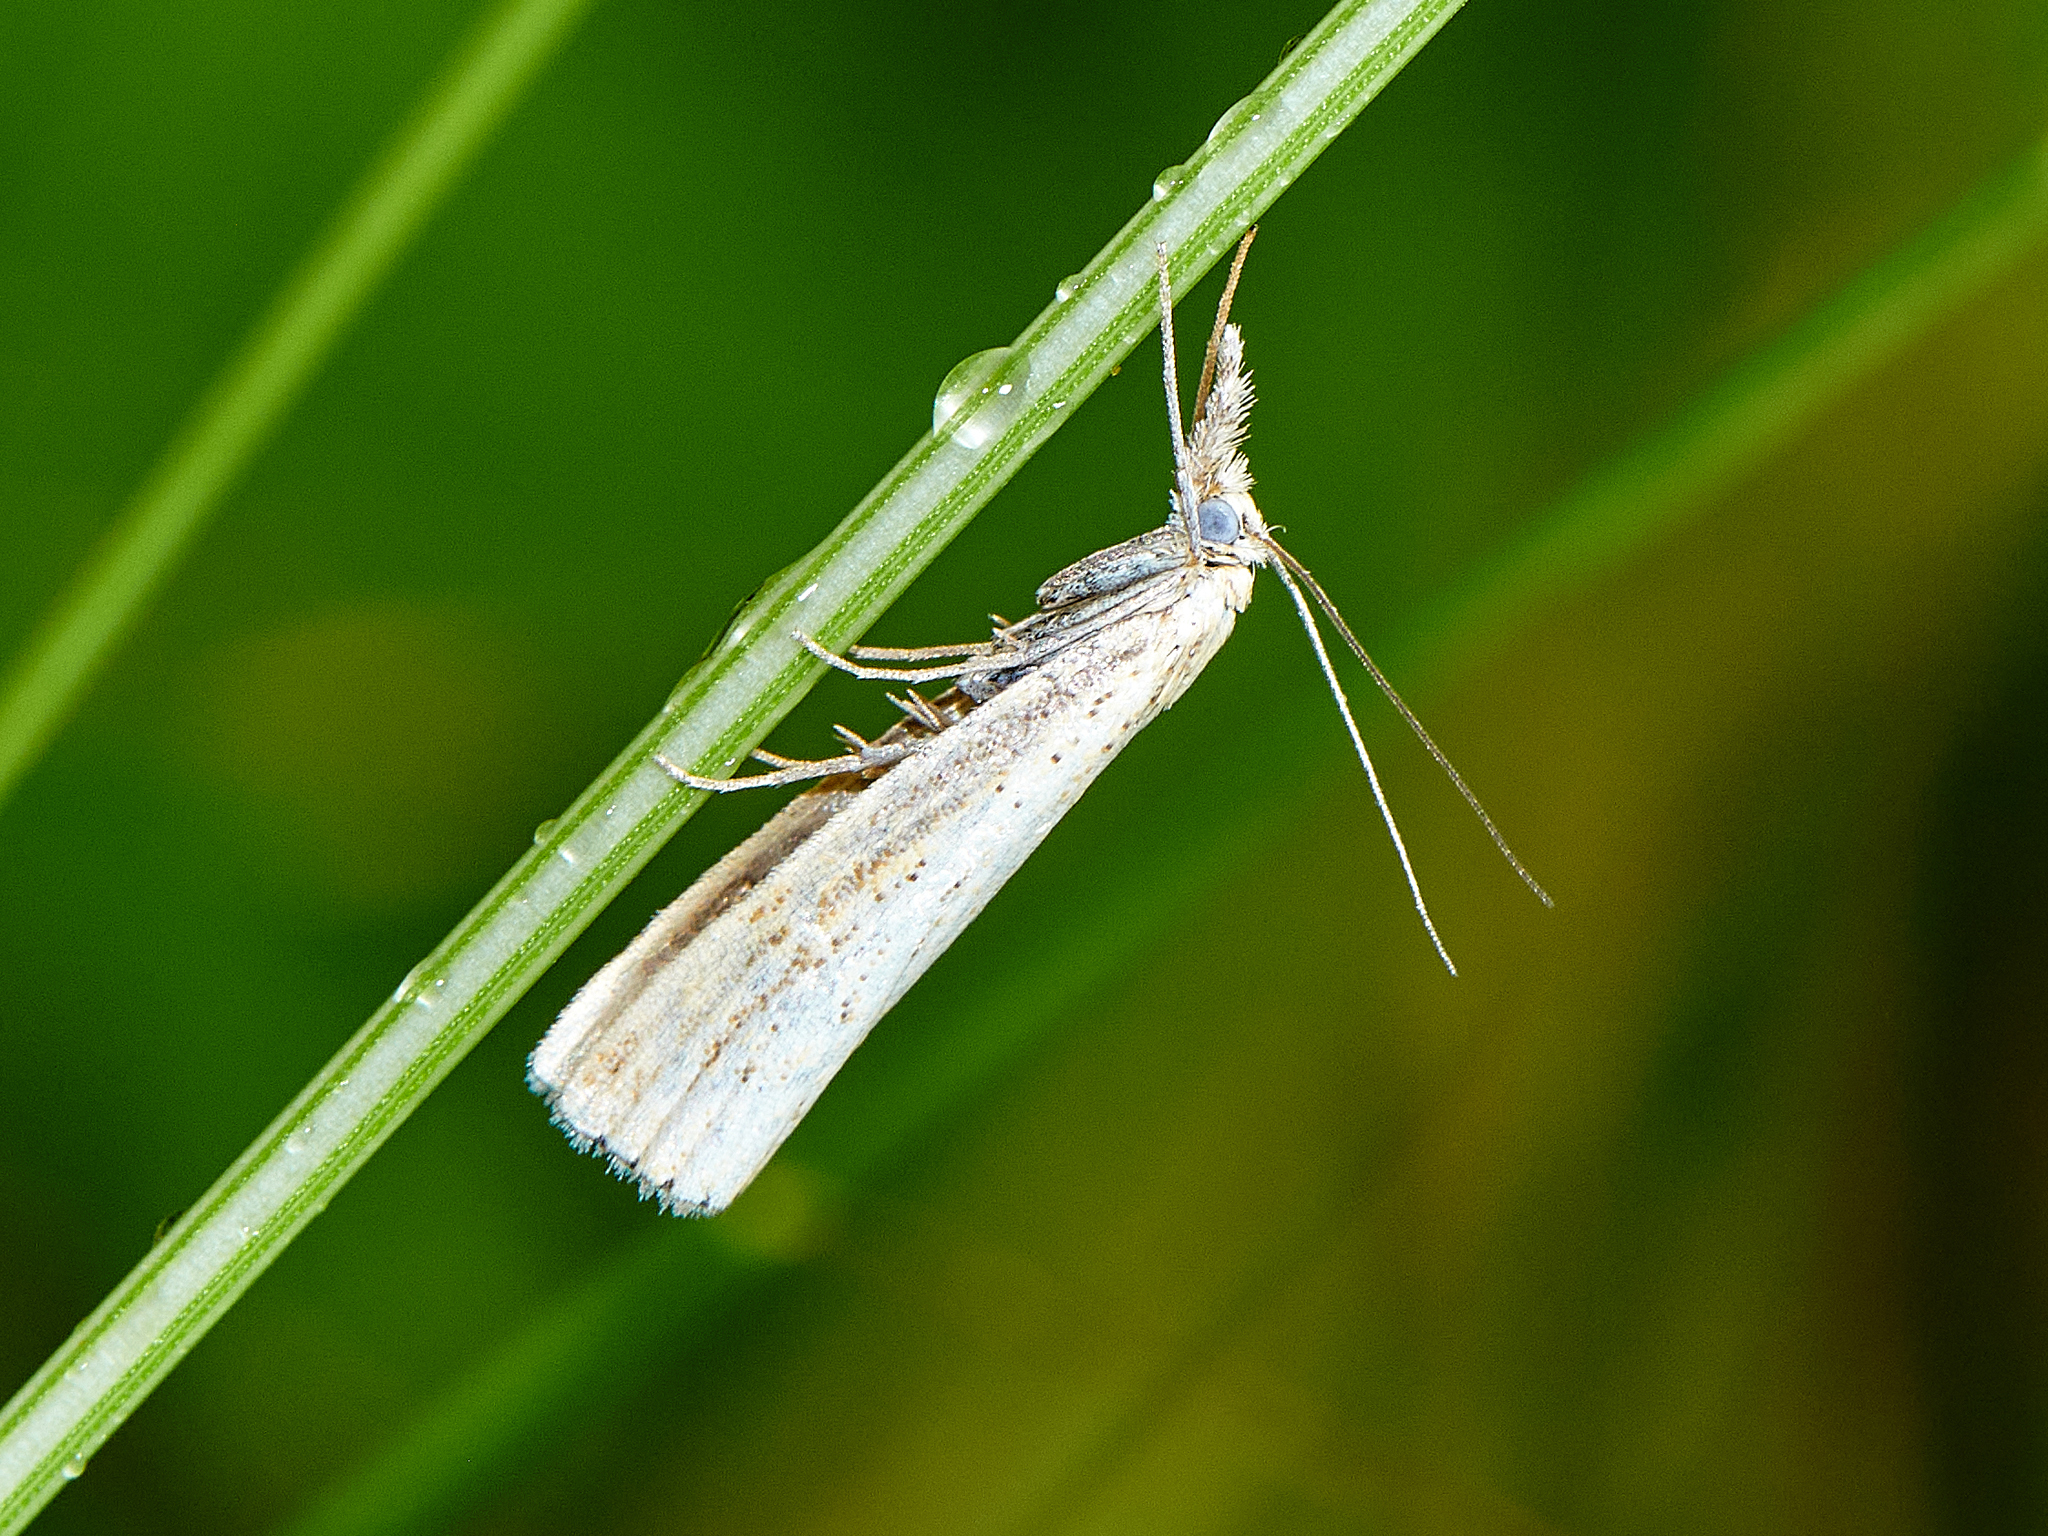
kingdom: Animalia
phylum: Arthropoda
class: Insecta
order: Lepidoptera
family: Crambidae
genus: Agriphila
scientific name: Agriphila straminella
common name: Straw grass-veneer
